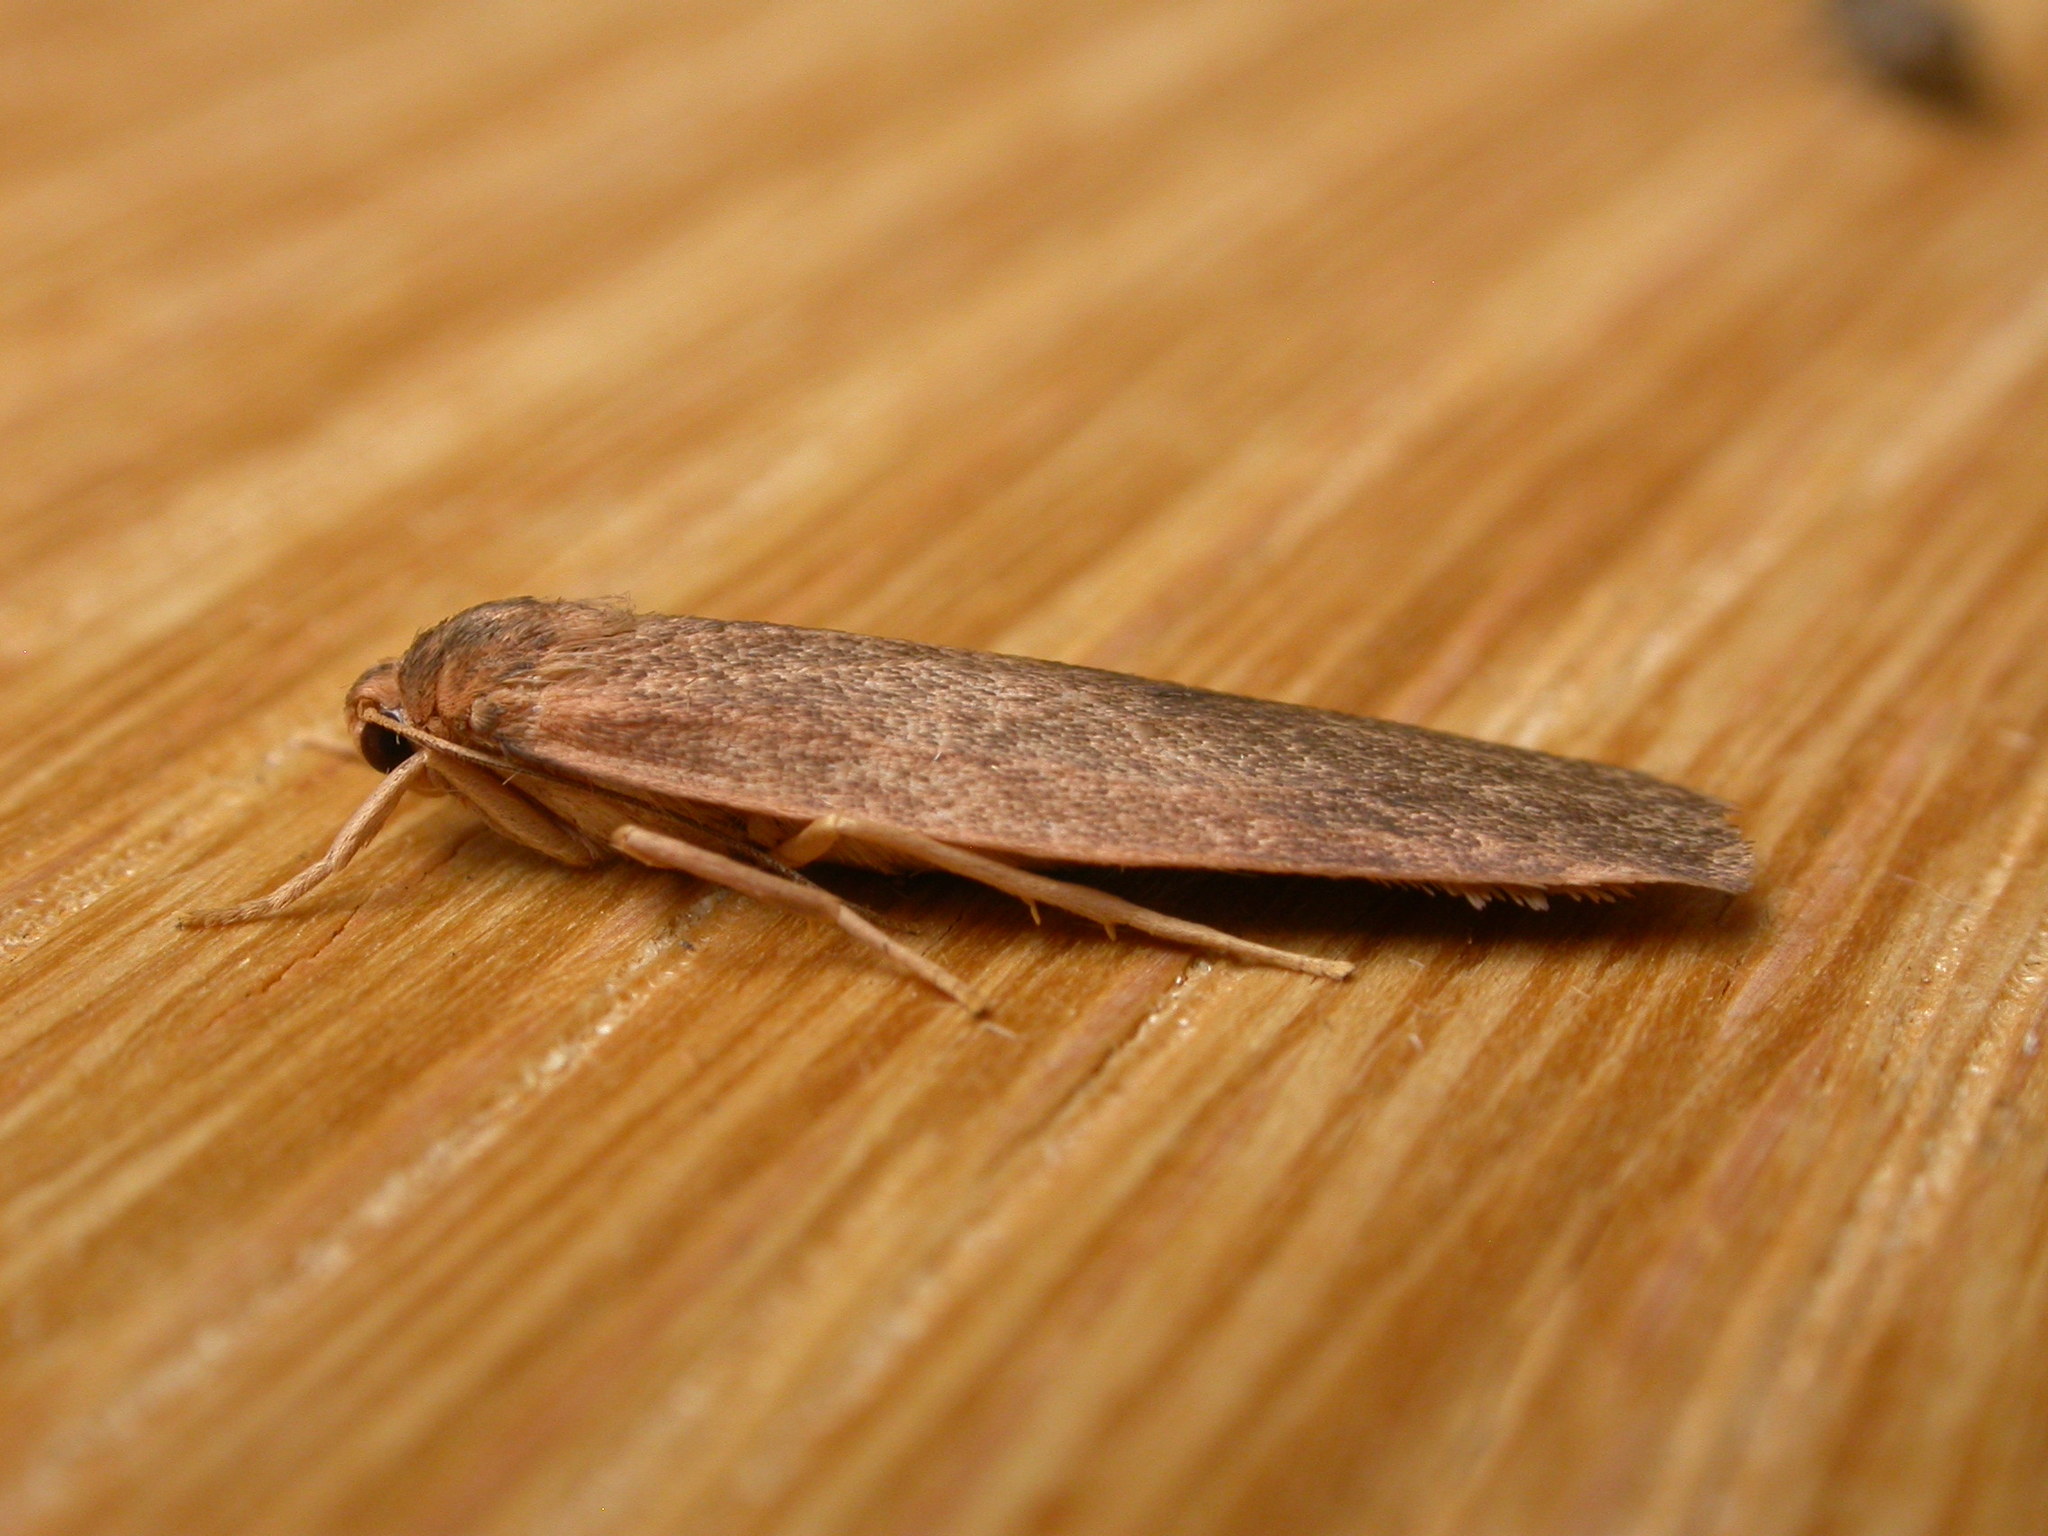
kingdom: Animalia
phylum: Arthropoda
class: Insecta
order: Lepidoptera
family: Erebidae
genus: Scoliacma
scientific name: Scoliacma nana
